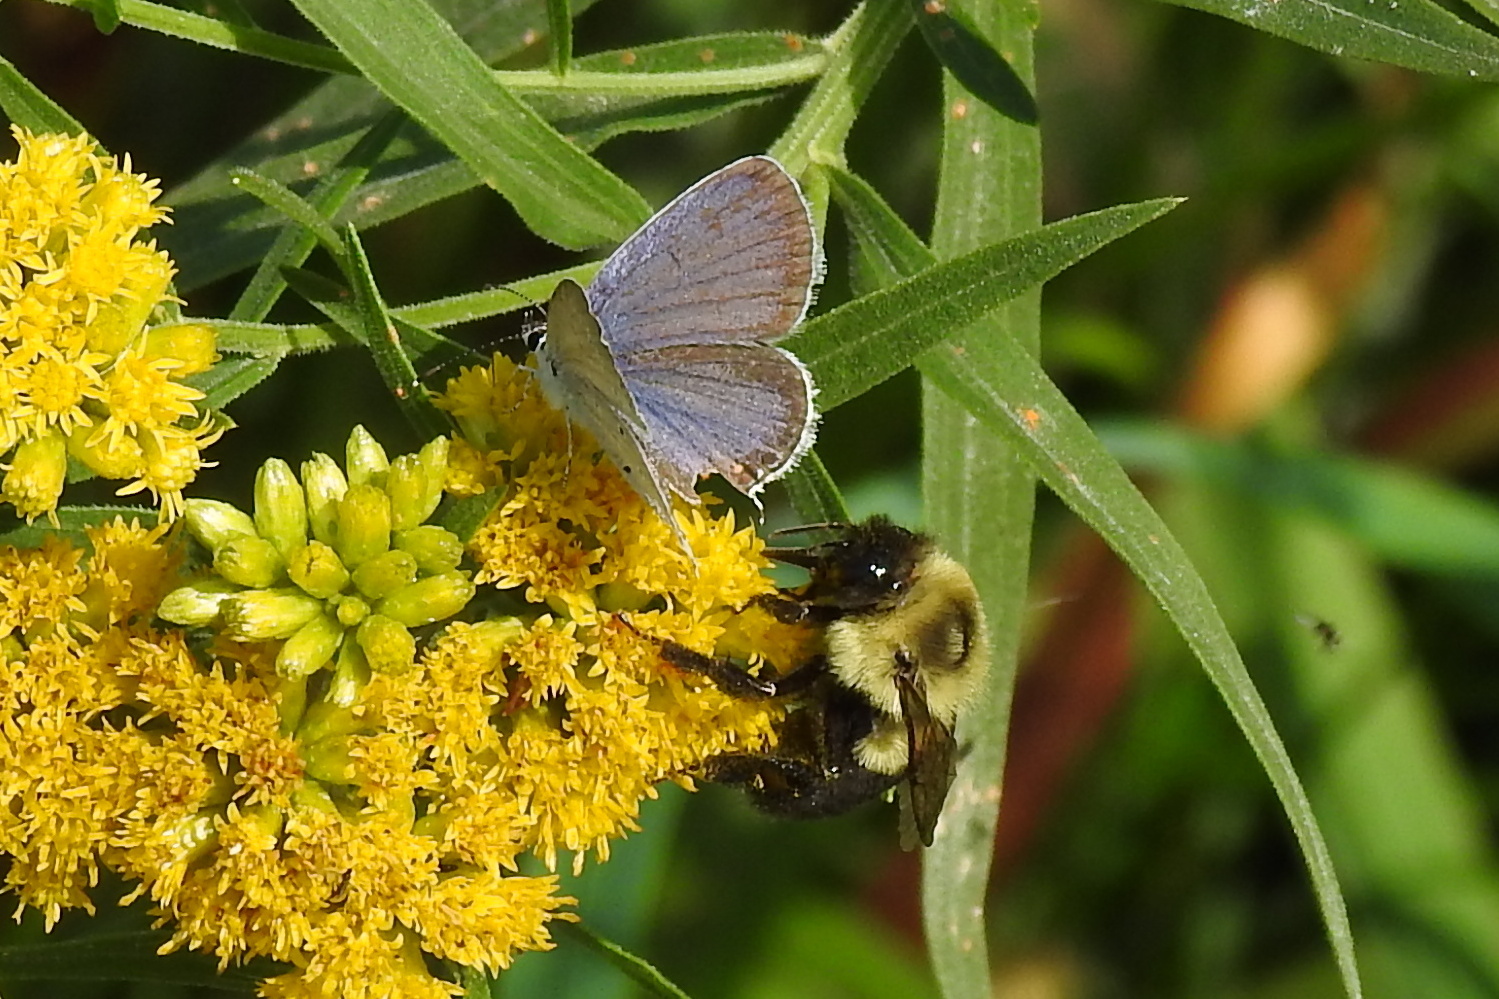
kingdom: Animalia
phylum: Arthropoda
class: Insecta
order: Lepidoptera
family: Lycaenidae
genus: Elkalyce
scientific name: Elkalyce comyntas
